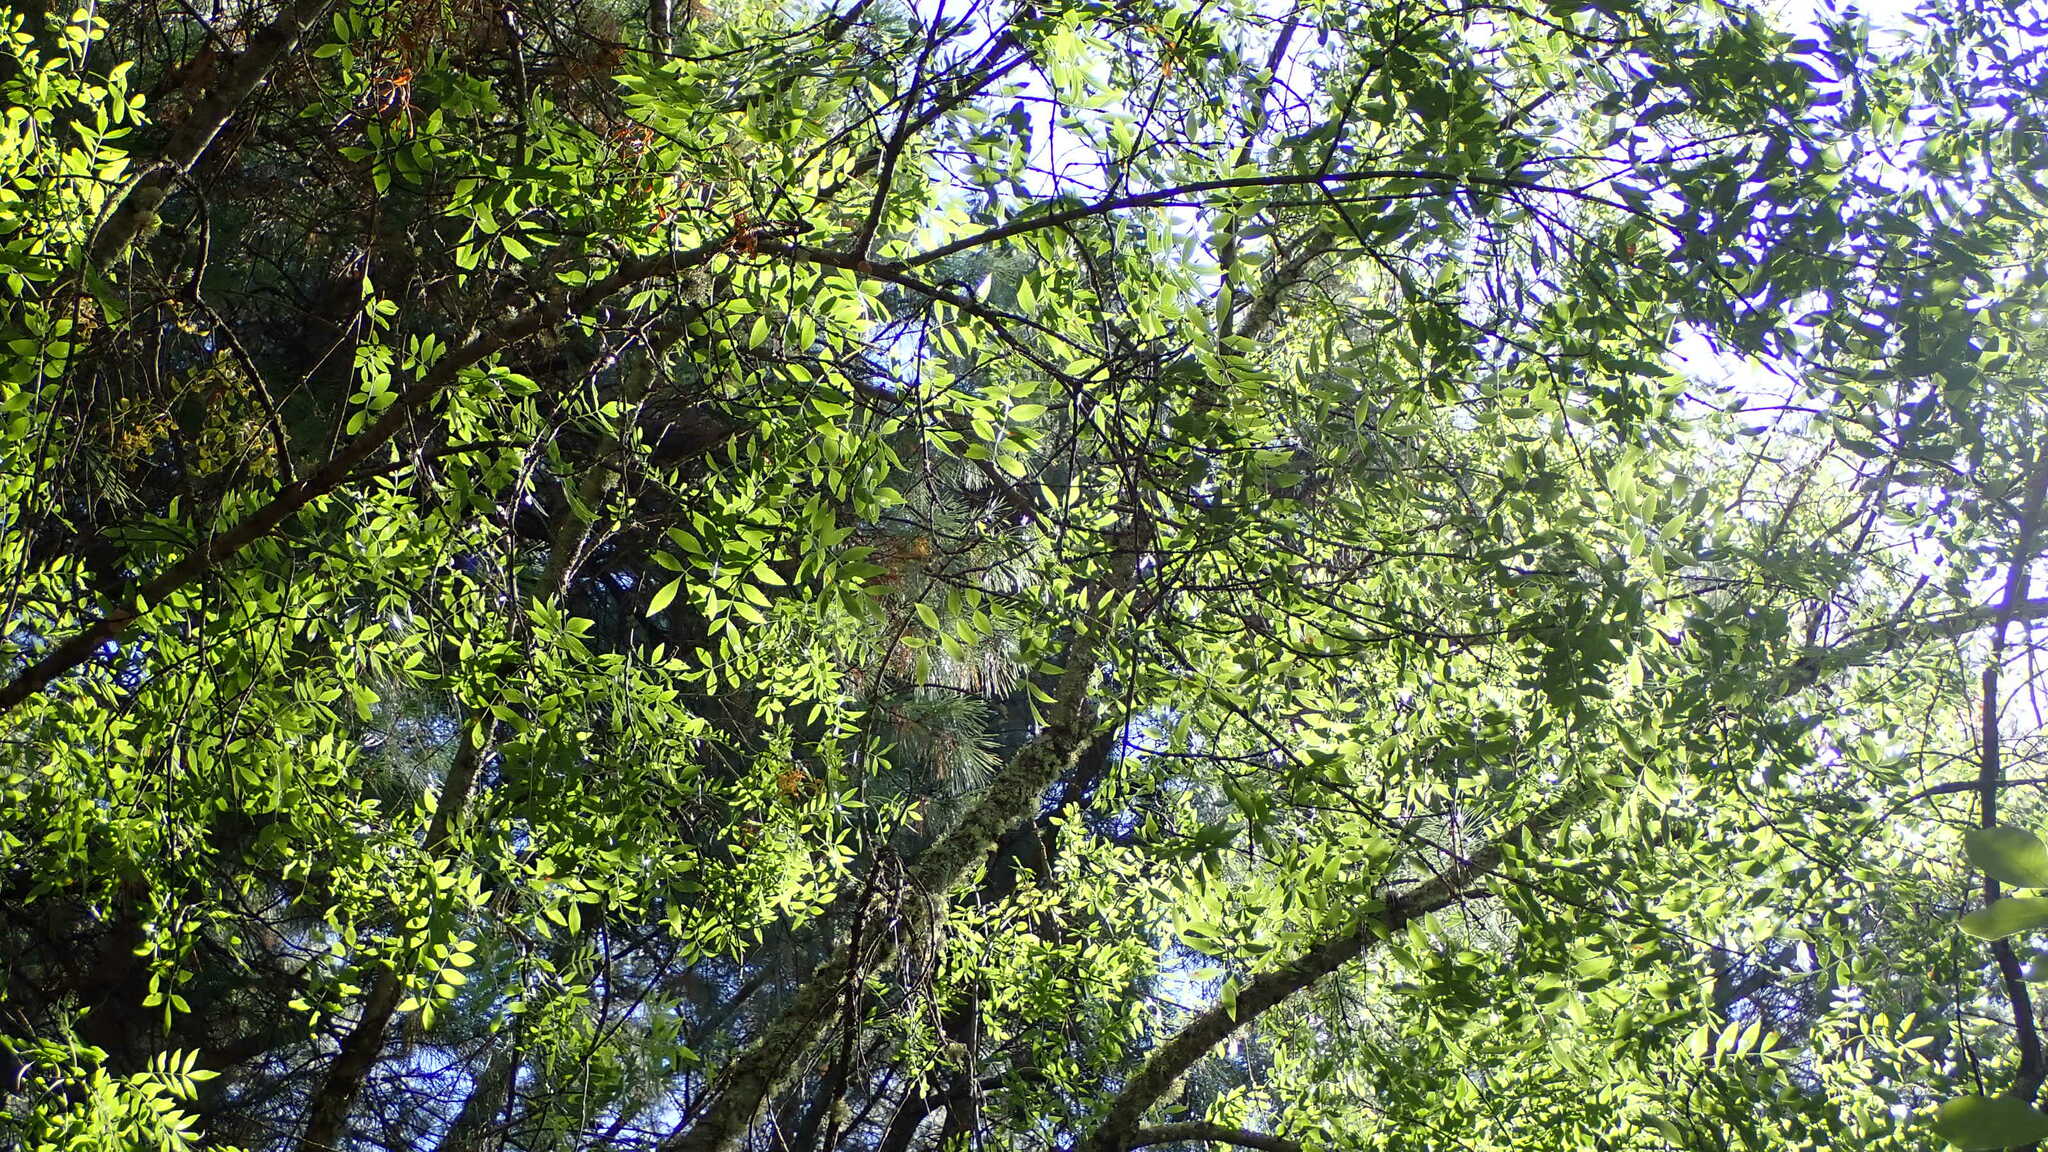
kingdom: Plantae
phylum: Tracheophyta
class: Magnoliopsida
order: Lamiales
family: Oleaceae
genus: Fraxinus
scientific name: Fraxinus angustifolia
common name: Narrow-leafed ash
